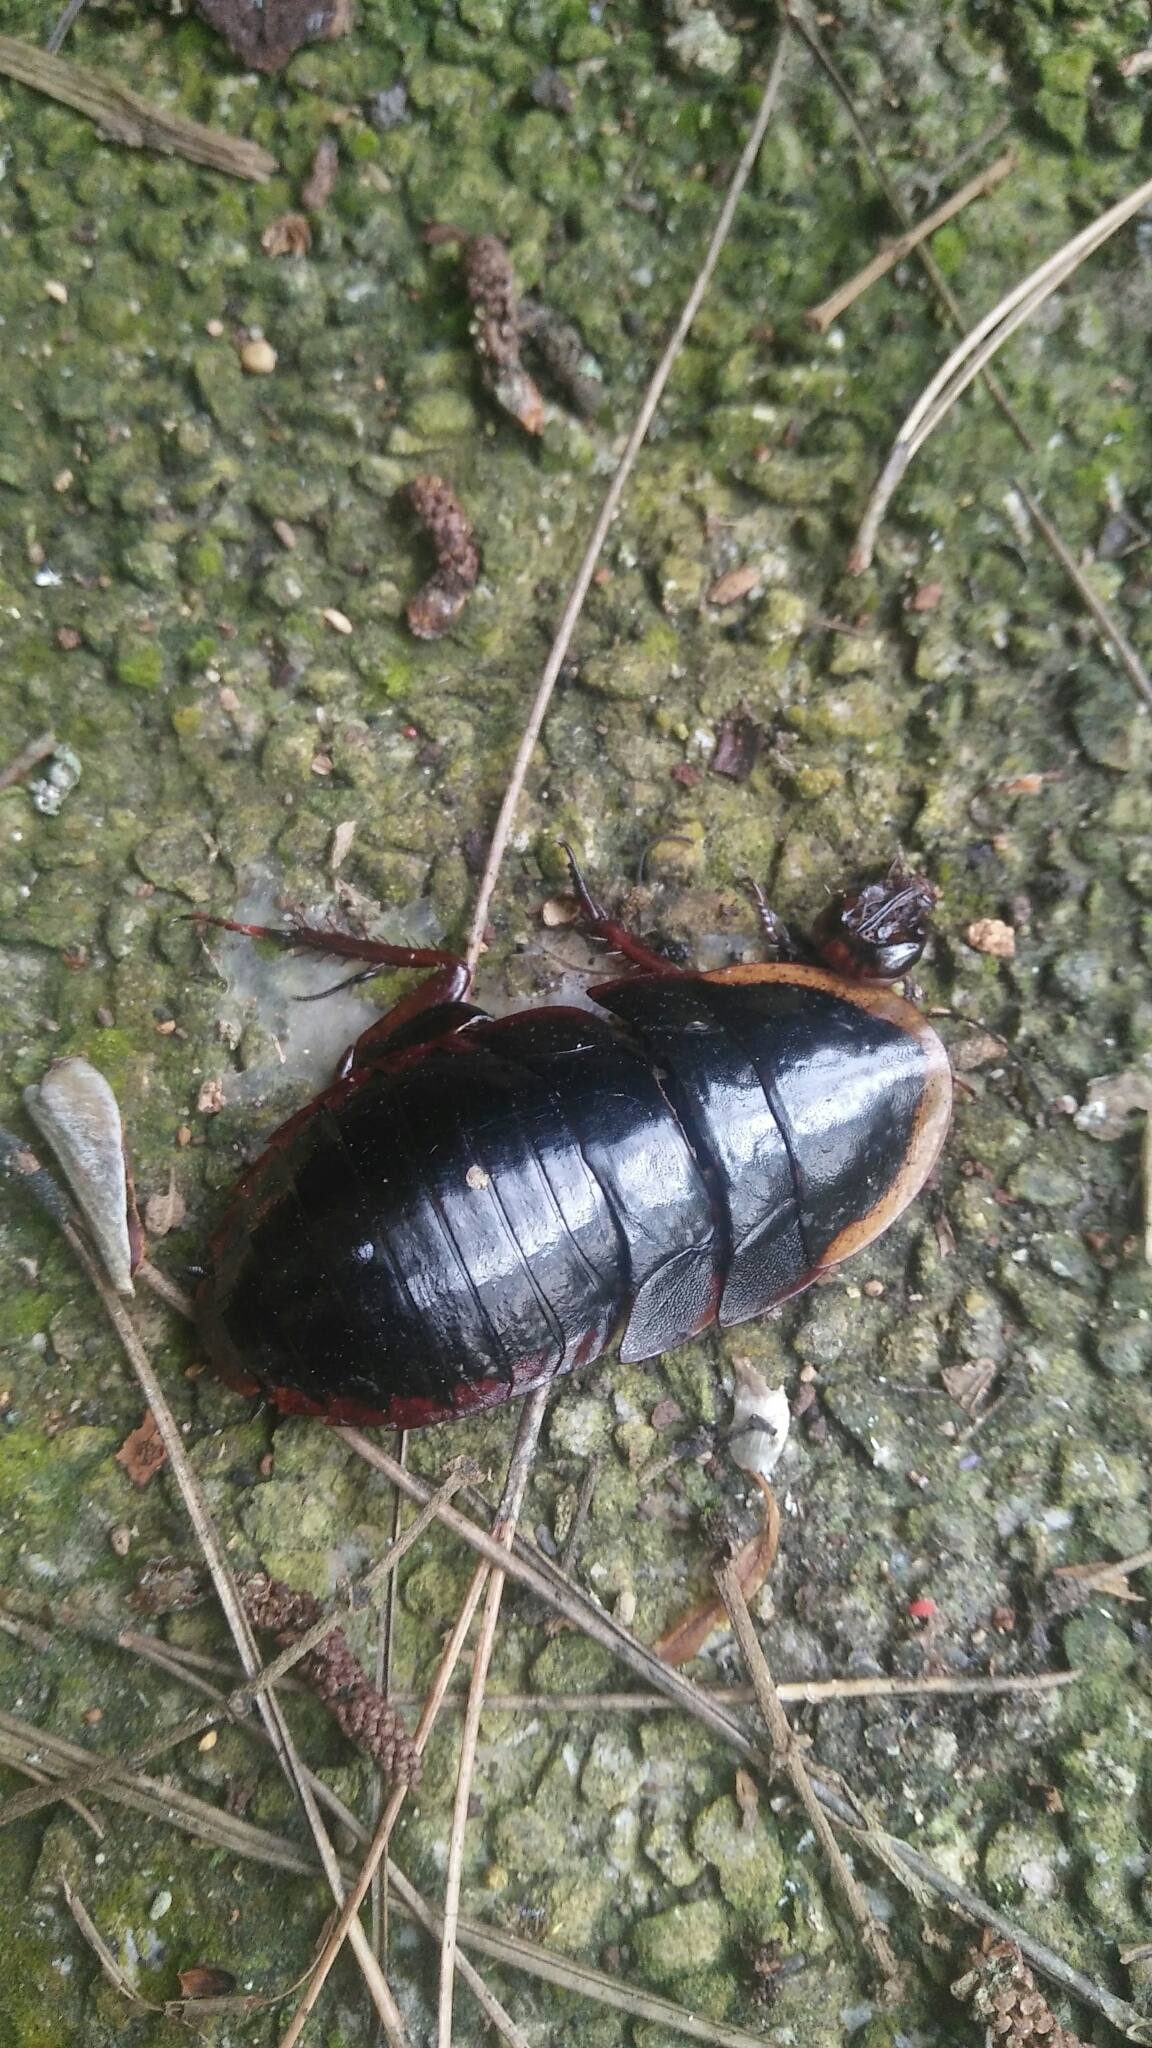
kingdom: Animalia
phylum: Arthropoda
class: Insecta
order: Blattodea
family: Blaberidae
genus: Opisthoplatia
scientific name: Opisthoplatia orientalis
